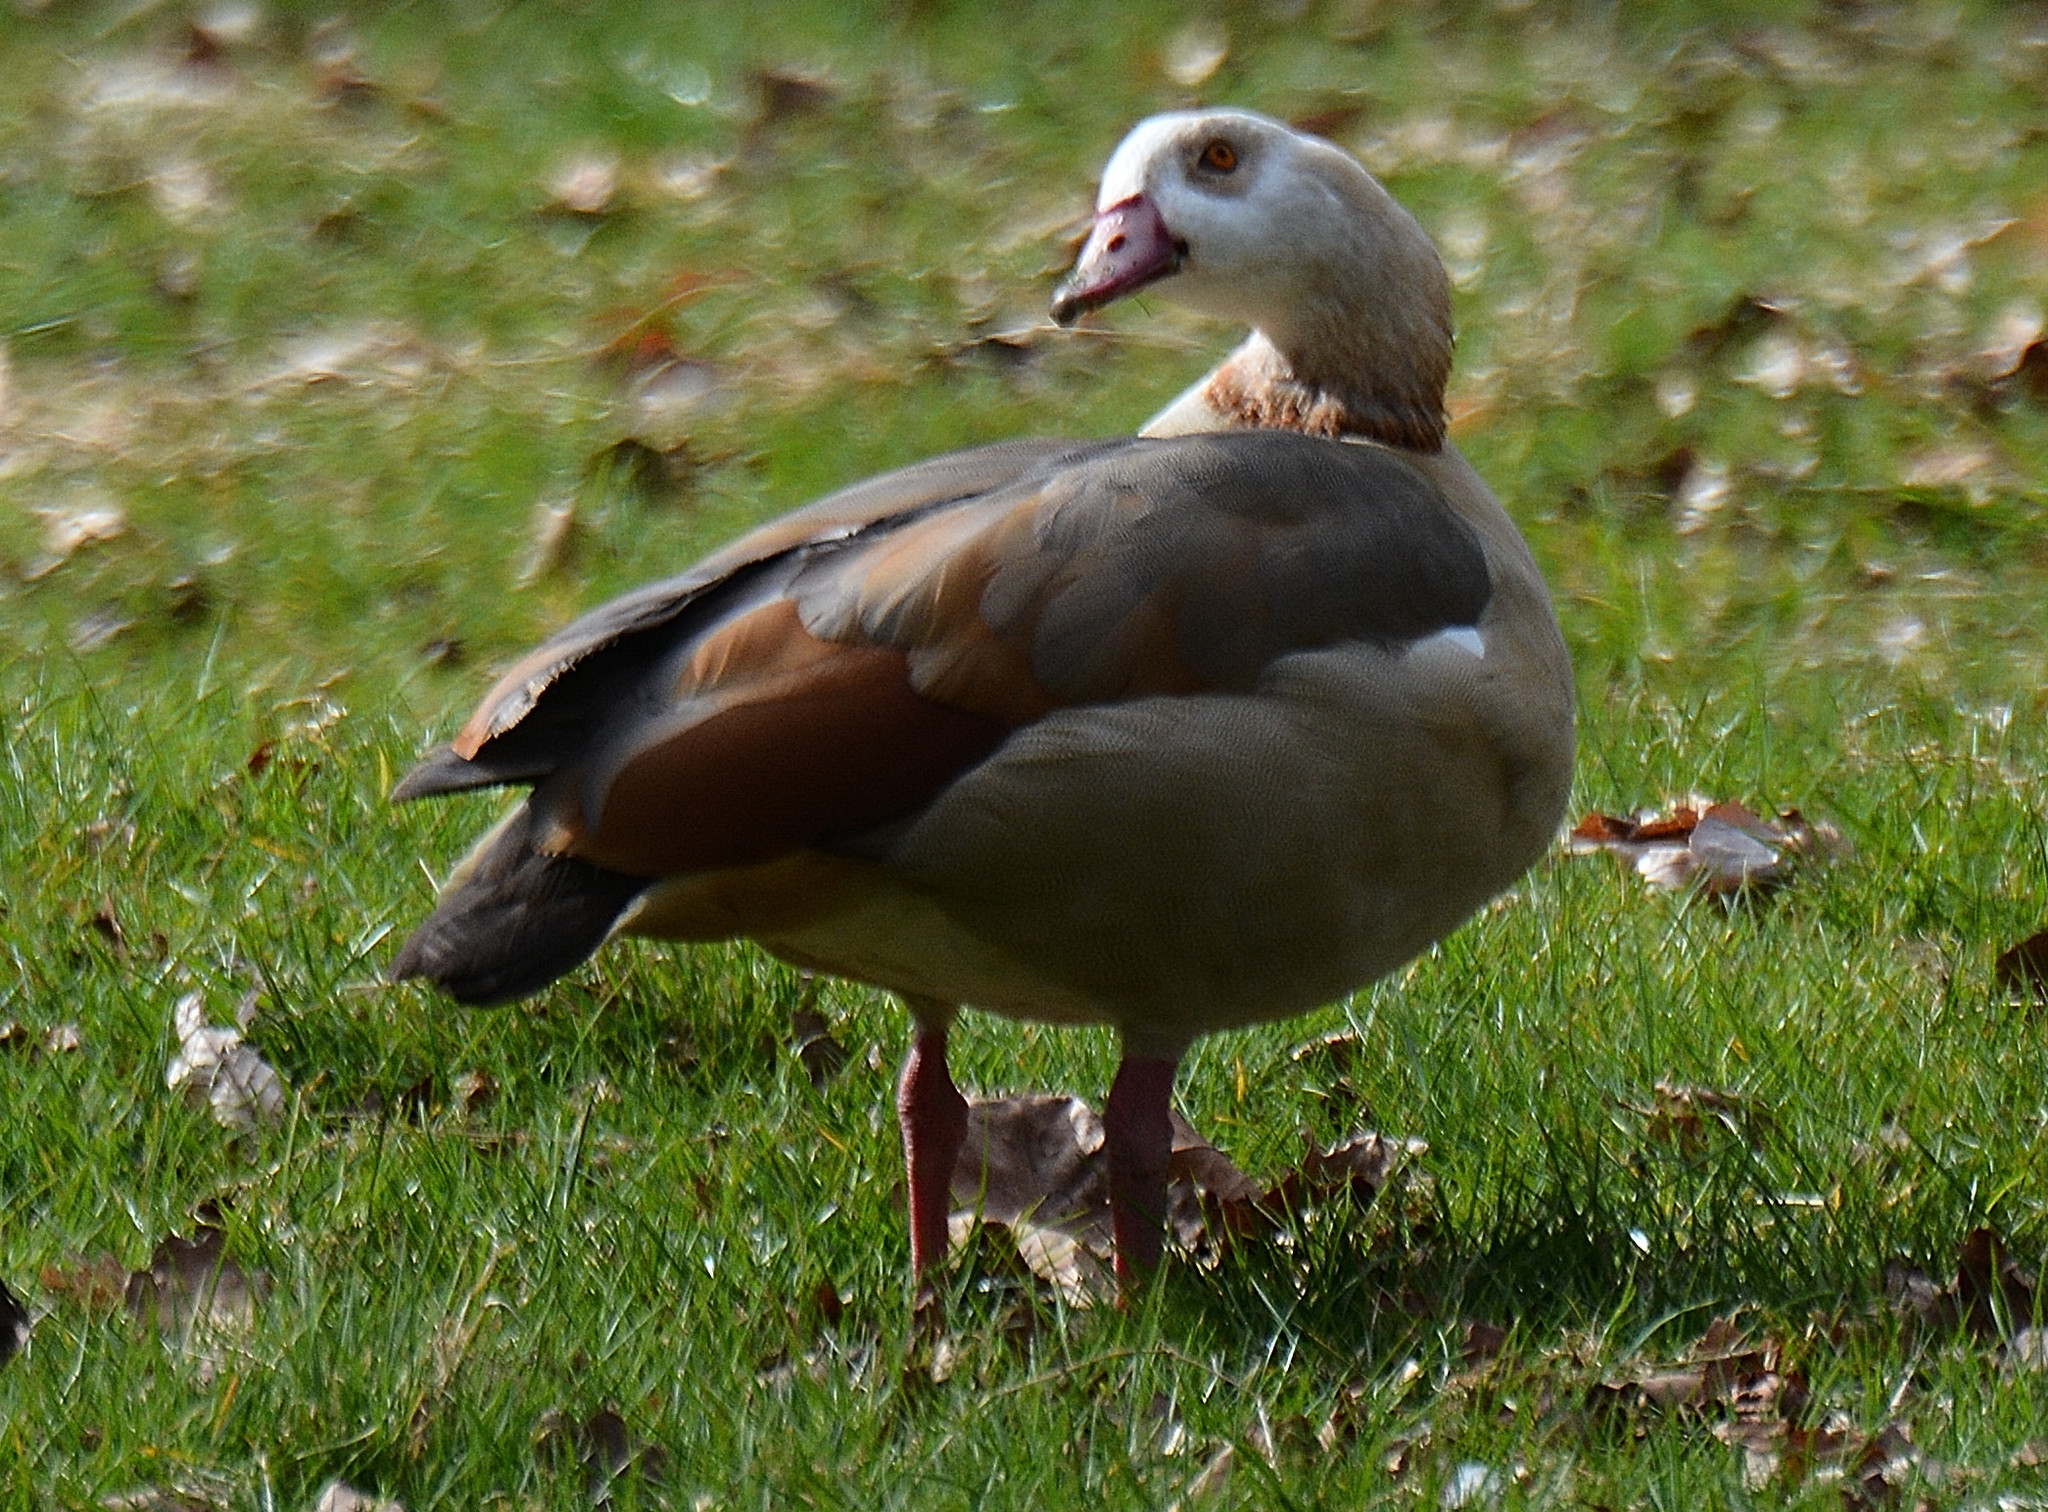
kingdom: Animalia
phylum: Chordata
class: Aves
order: Anseriformes
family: Anatidae
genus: Alopochen
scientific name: Alopochen aegyptiaca
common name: Egyptian goose
